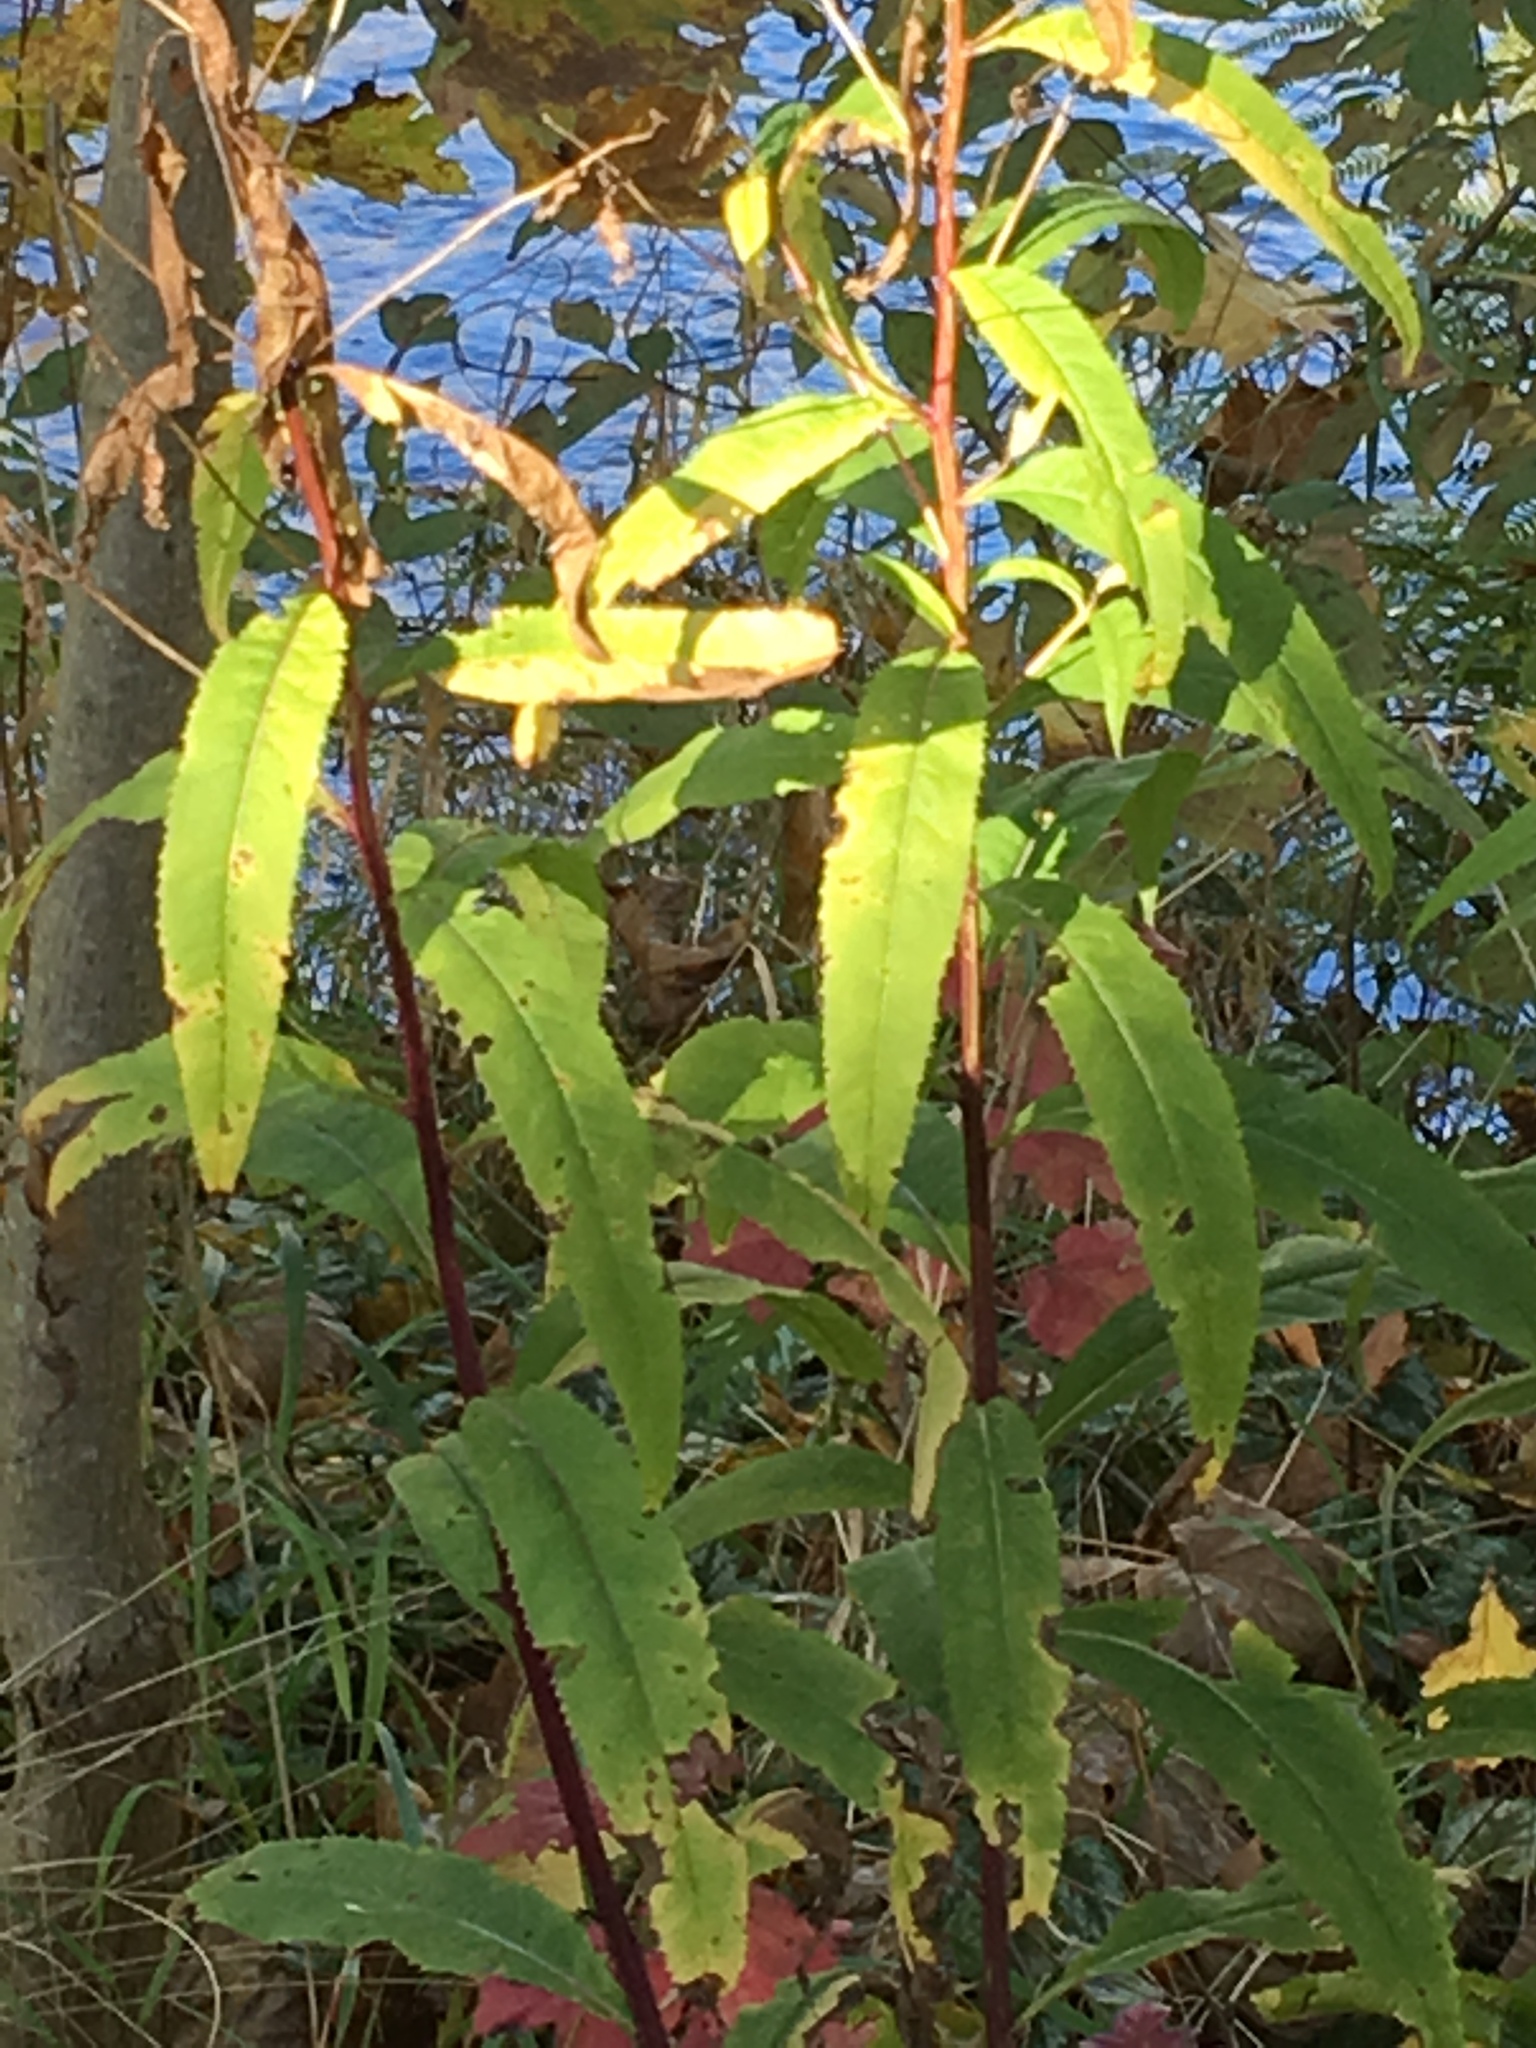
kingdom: Plantae
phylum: Tracheophyta
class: Magnoliopsida
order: Asterales
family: Asteraceae
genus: Solidago
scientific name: Solidago gigantea
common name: Giant goldenrod
